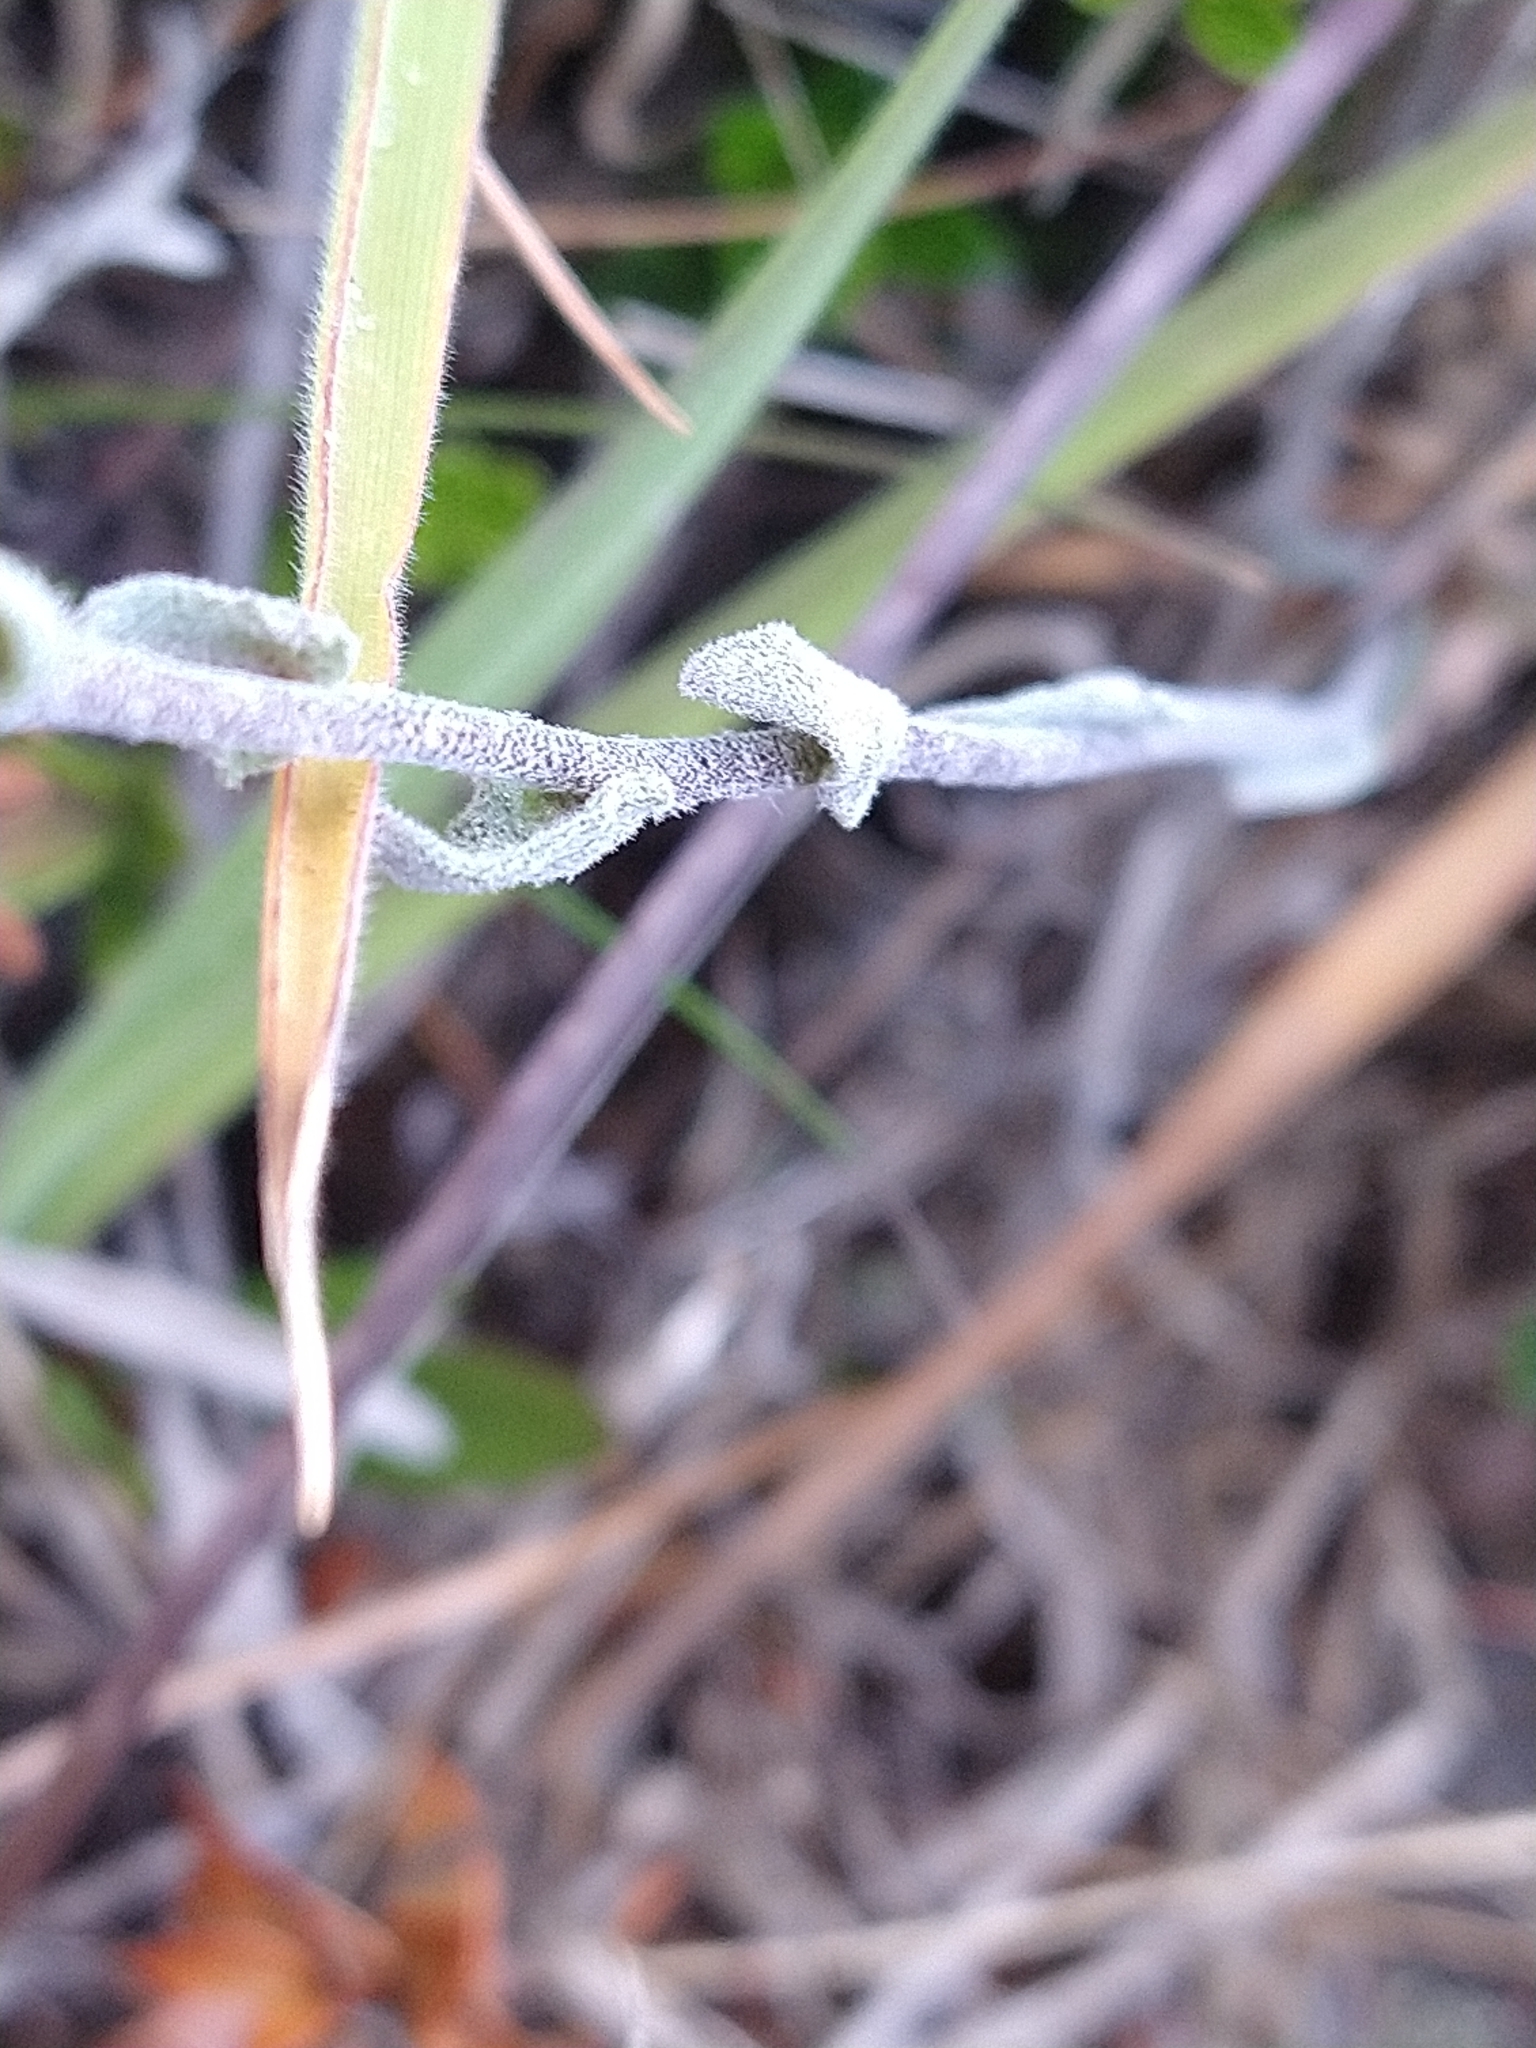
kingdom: Plantae
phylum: Tracheophyta
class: Magnoliopsida
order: Brassicales
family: Brassicaceae
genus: Draba
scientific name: Draba magellanica
